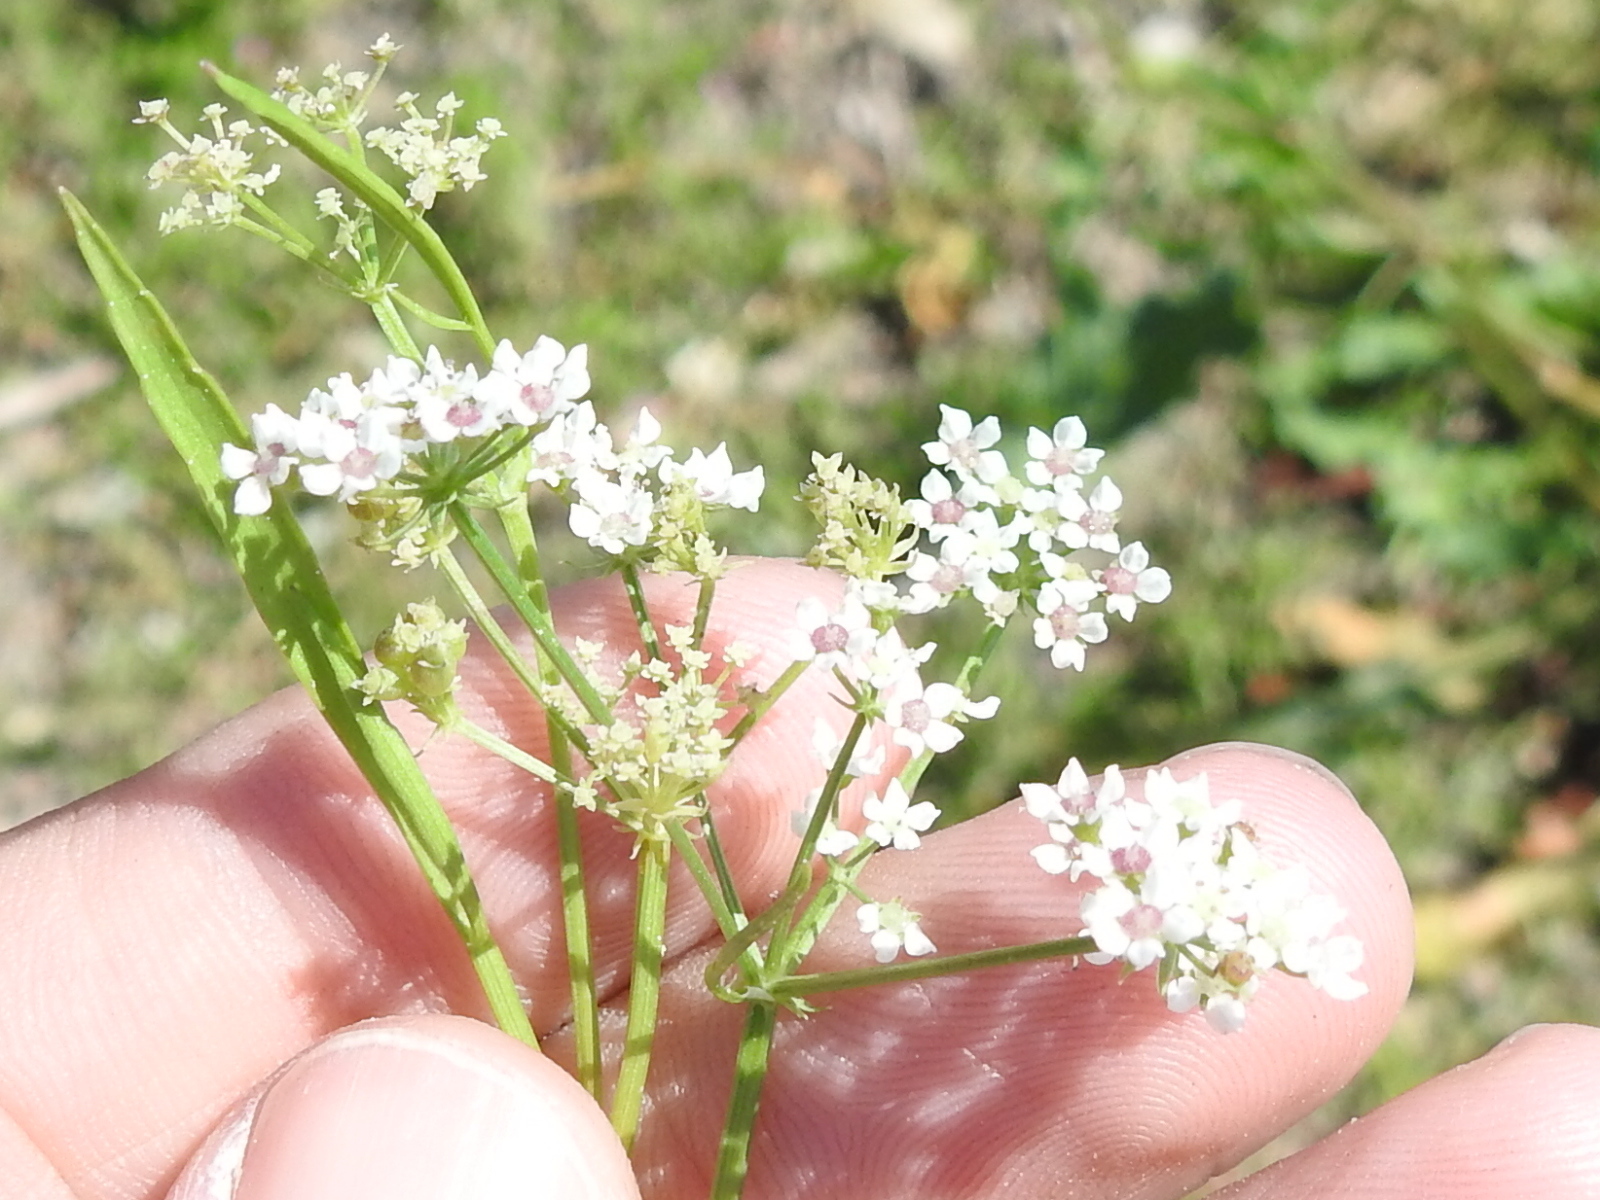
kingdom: Plantae
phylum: Tracheophyta
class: Magnoliopsida
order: Apiales
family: Apiaceae
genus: Limnosciadium
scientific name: Limnosciadium pinnatum
